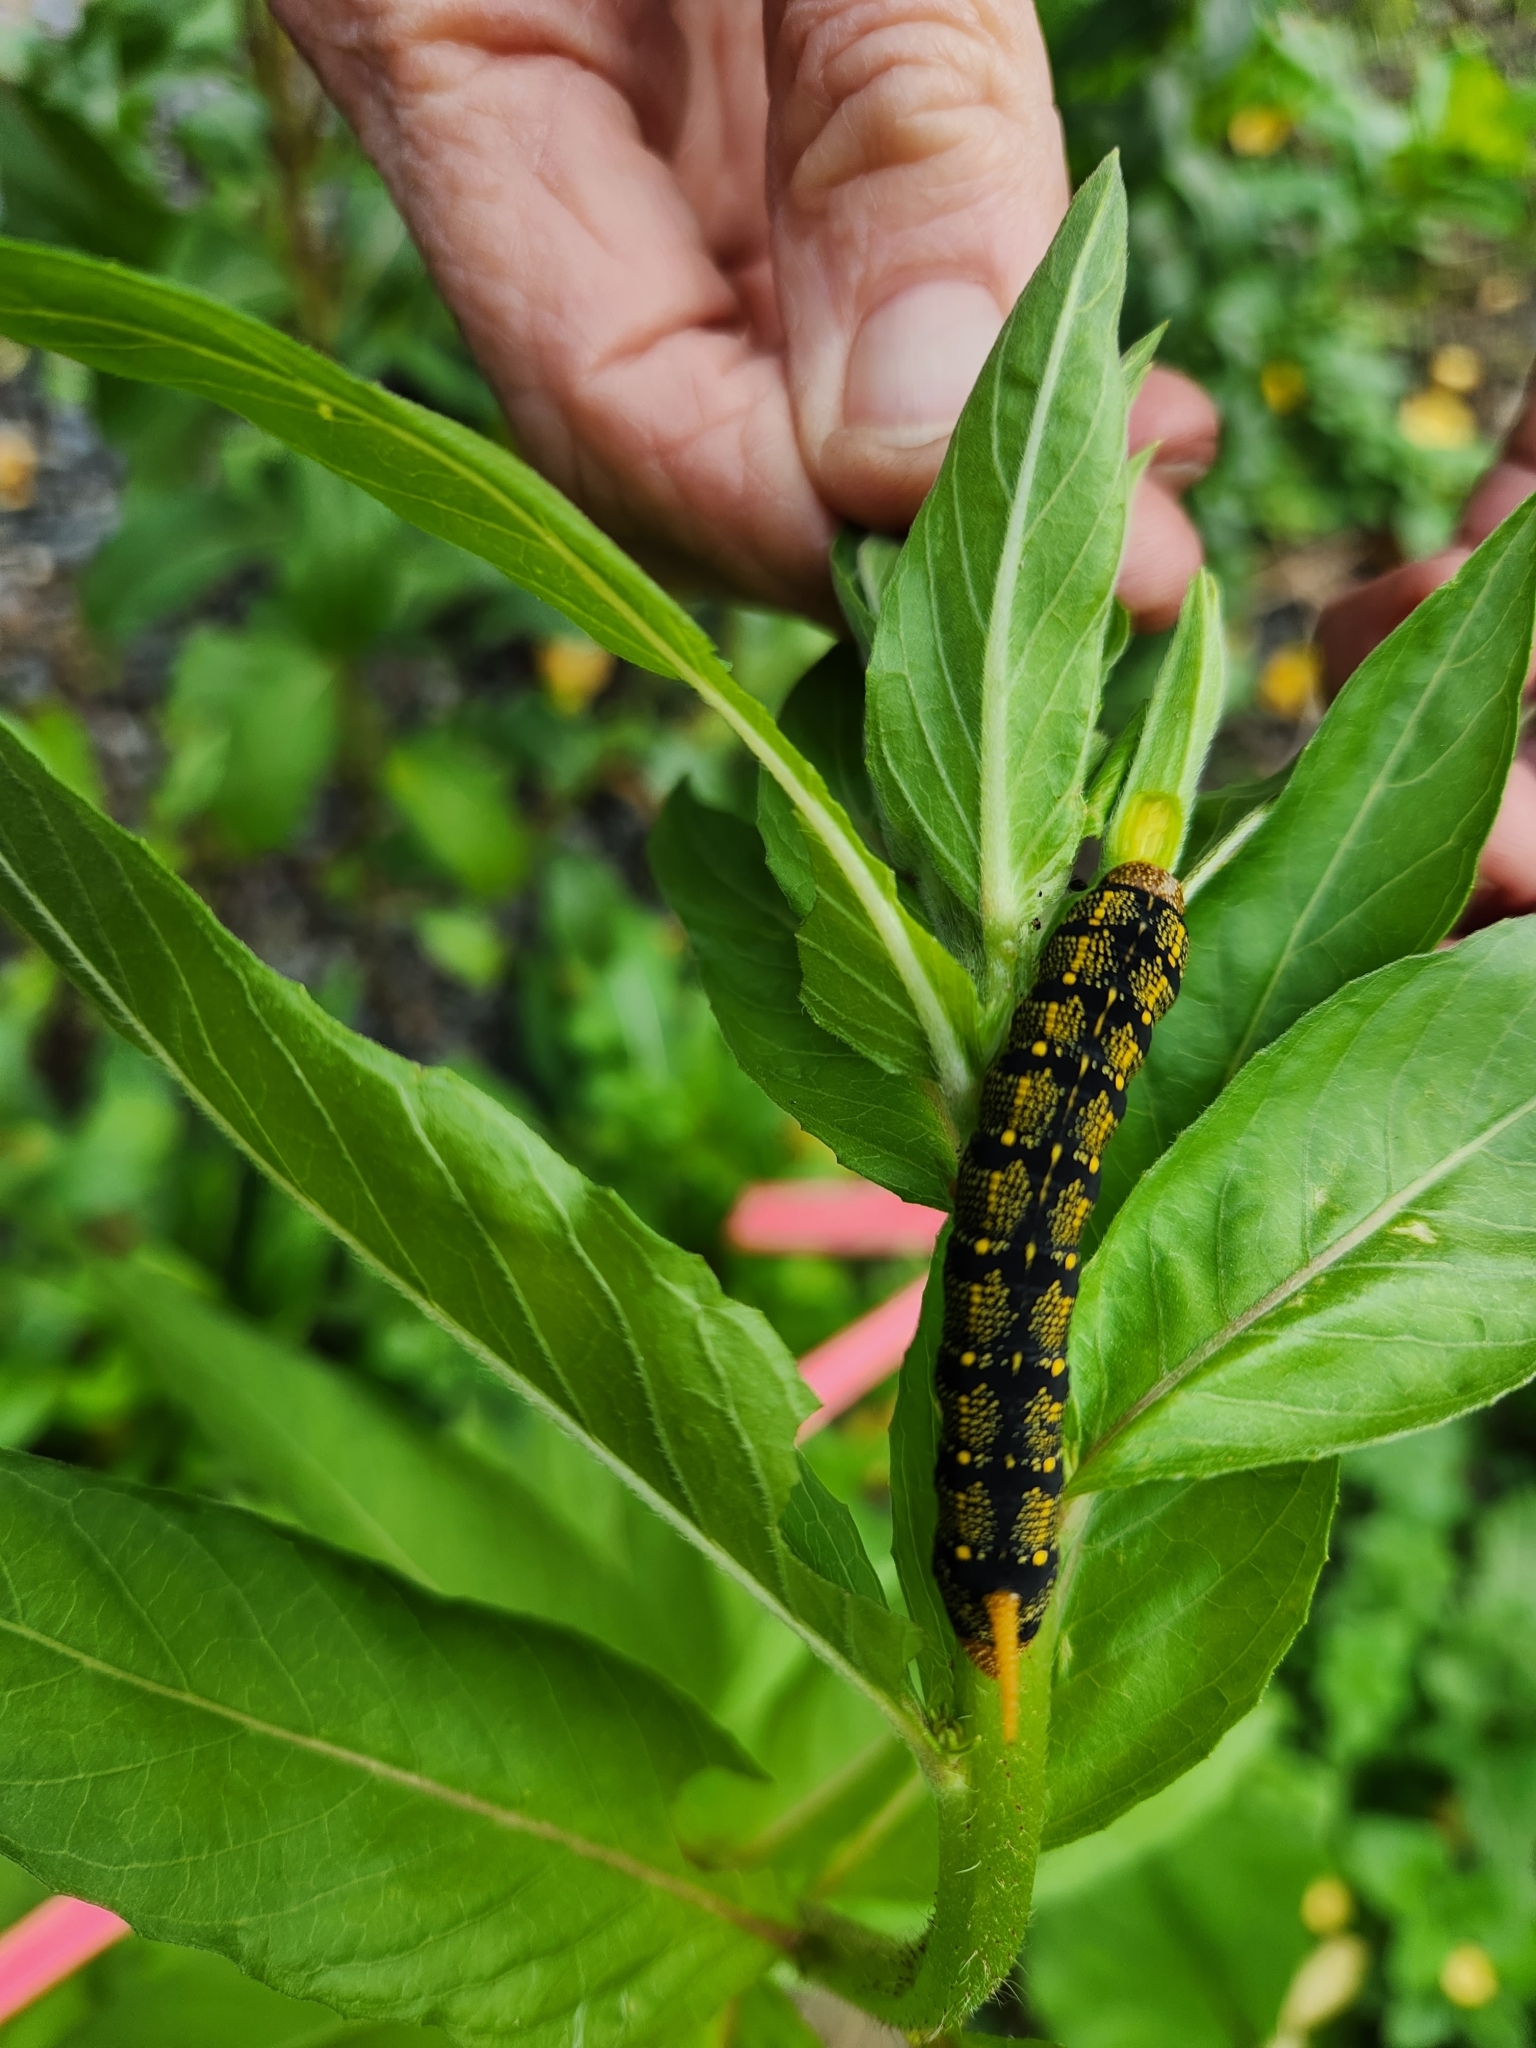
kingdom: Animalia
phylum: Arthropoda
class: Insecta
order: Lepidoptera
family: Sphingidae
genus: Hyles
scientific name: Hyles lineata
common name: White-lined sphinx
